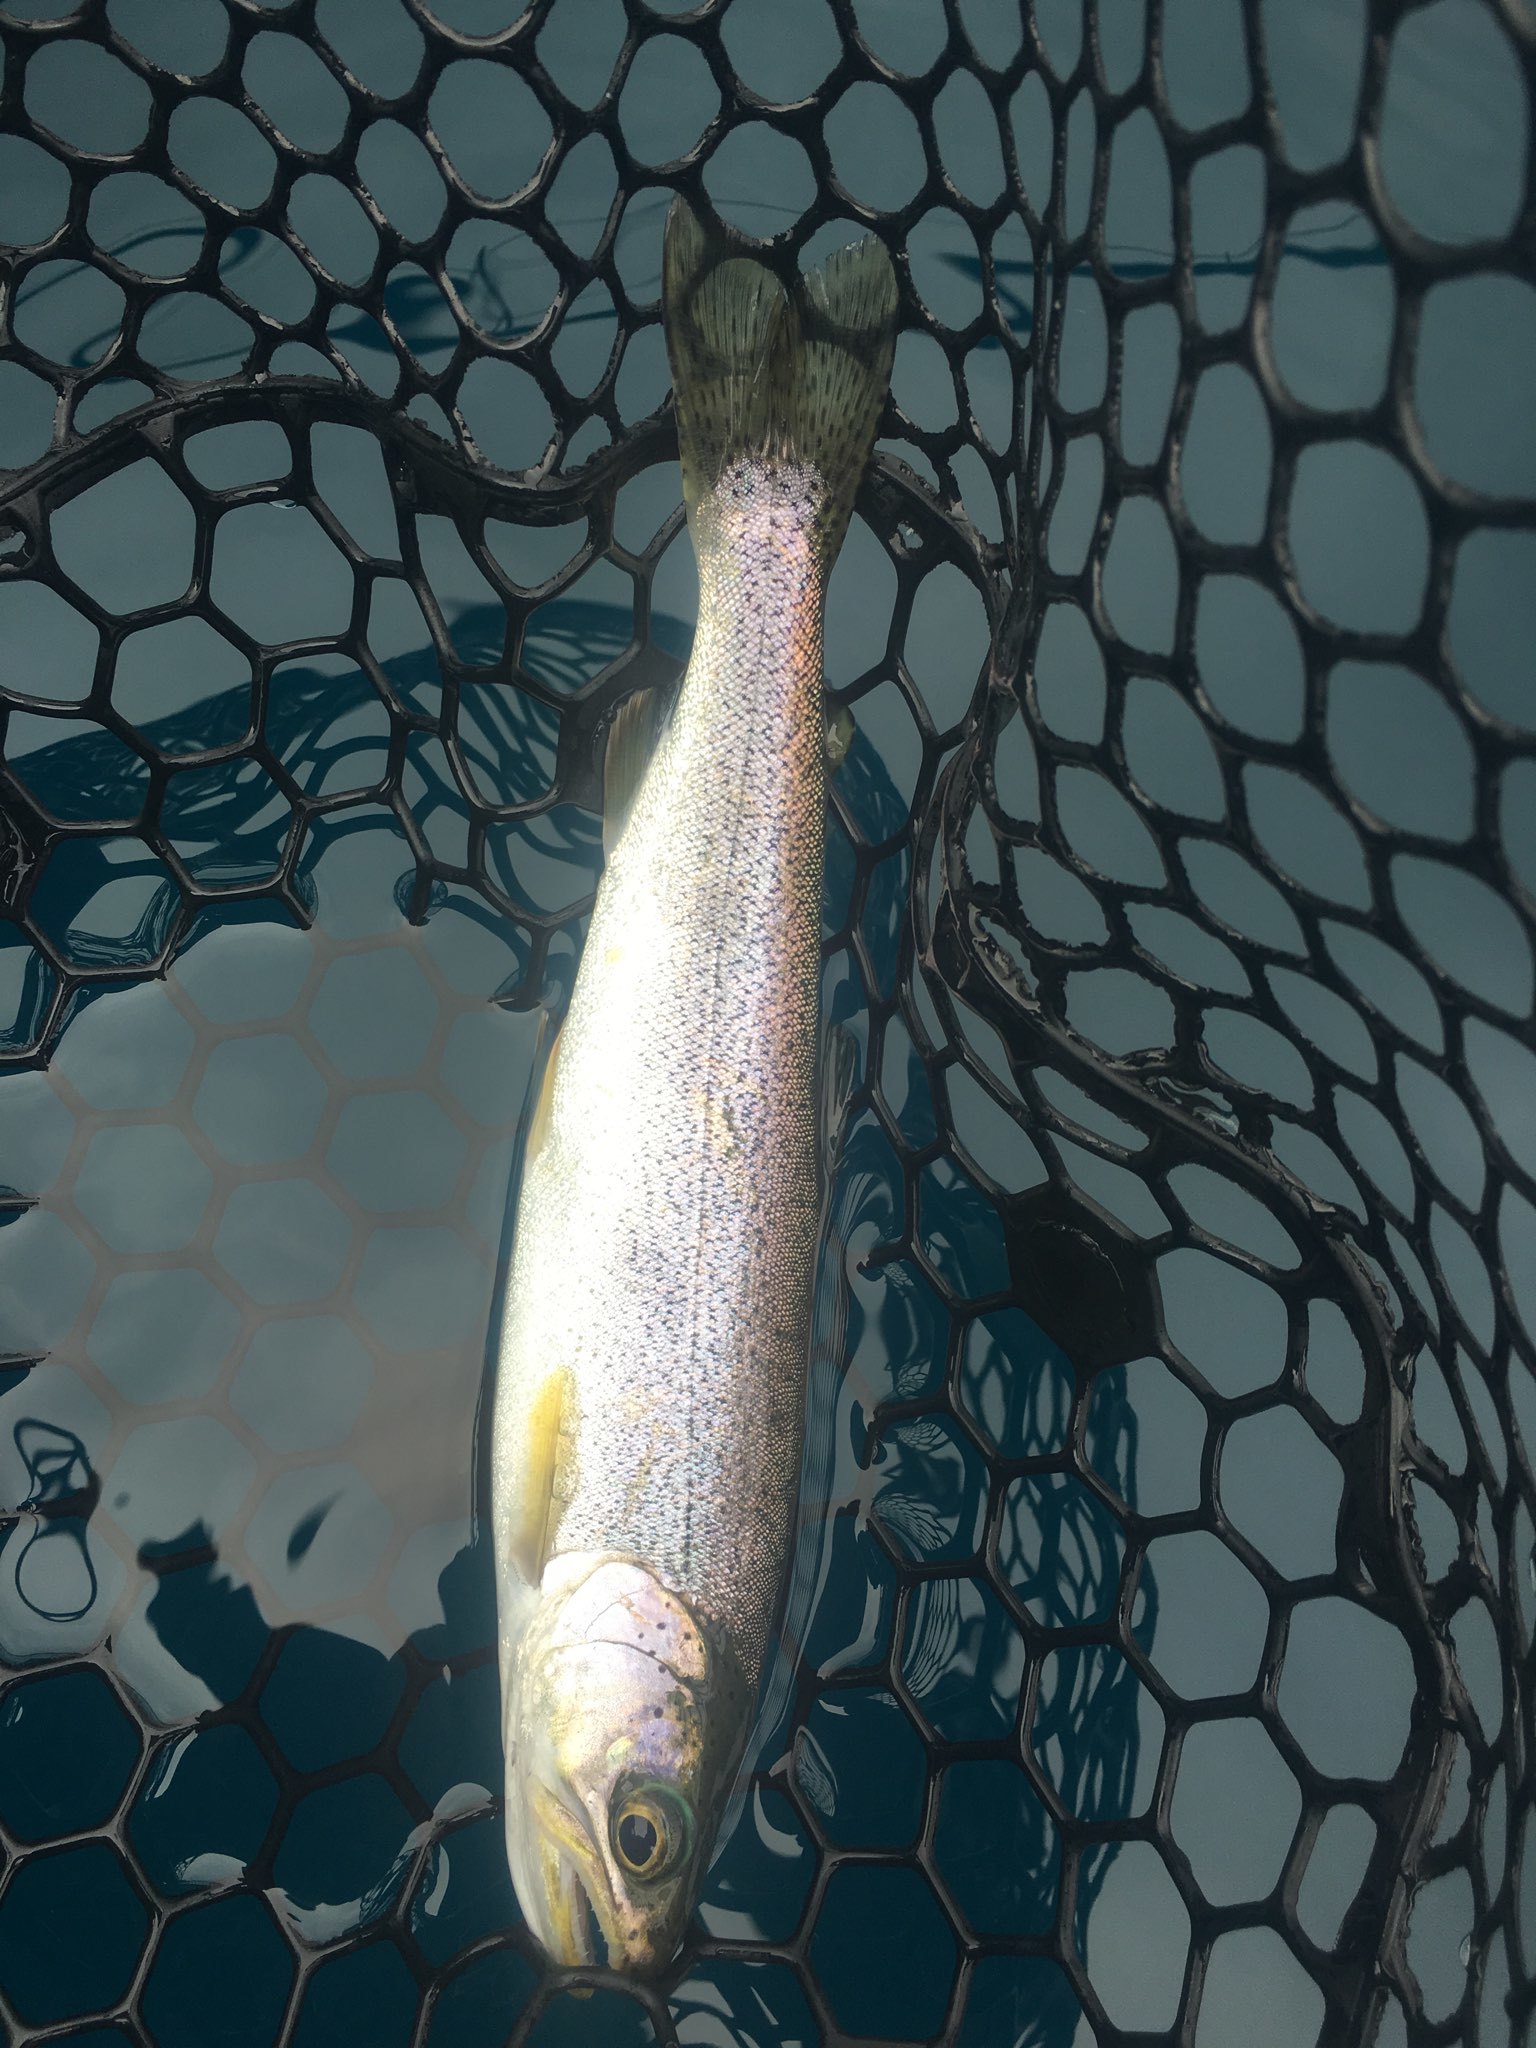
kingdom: Animalia
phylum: Chordata
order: Salmoniformes
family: Salmonidae
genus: Oncorhynchus
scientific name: Oncorhynchus clarkii
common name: Cutthroat trout
